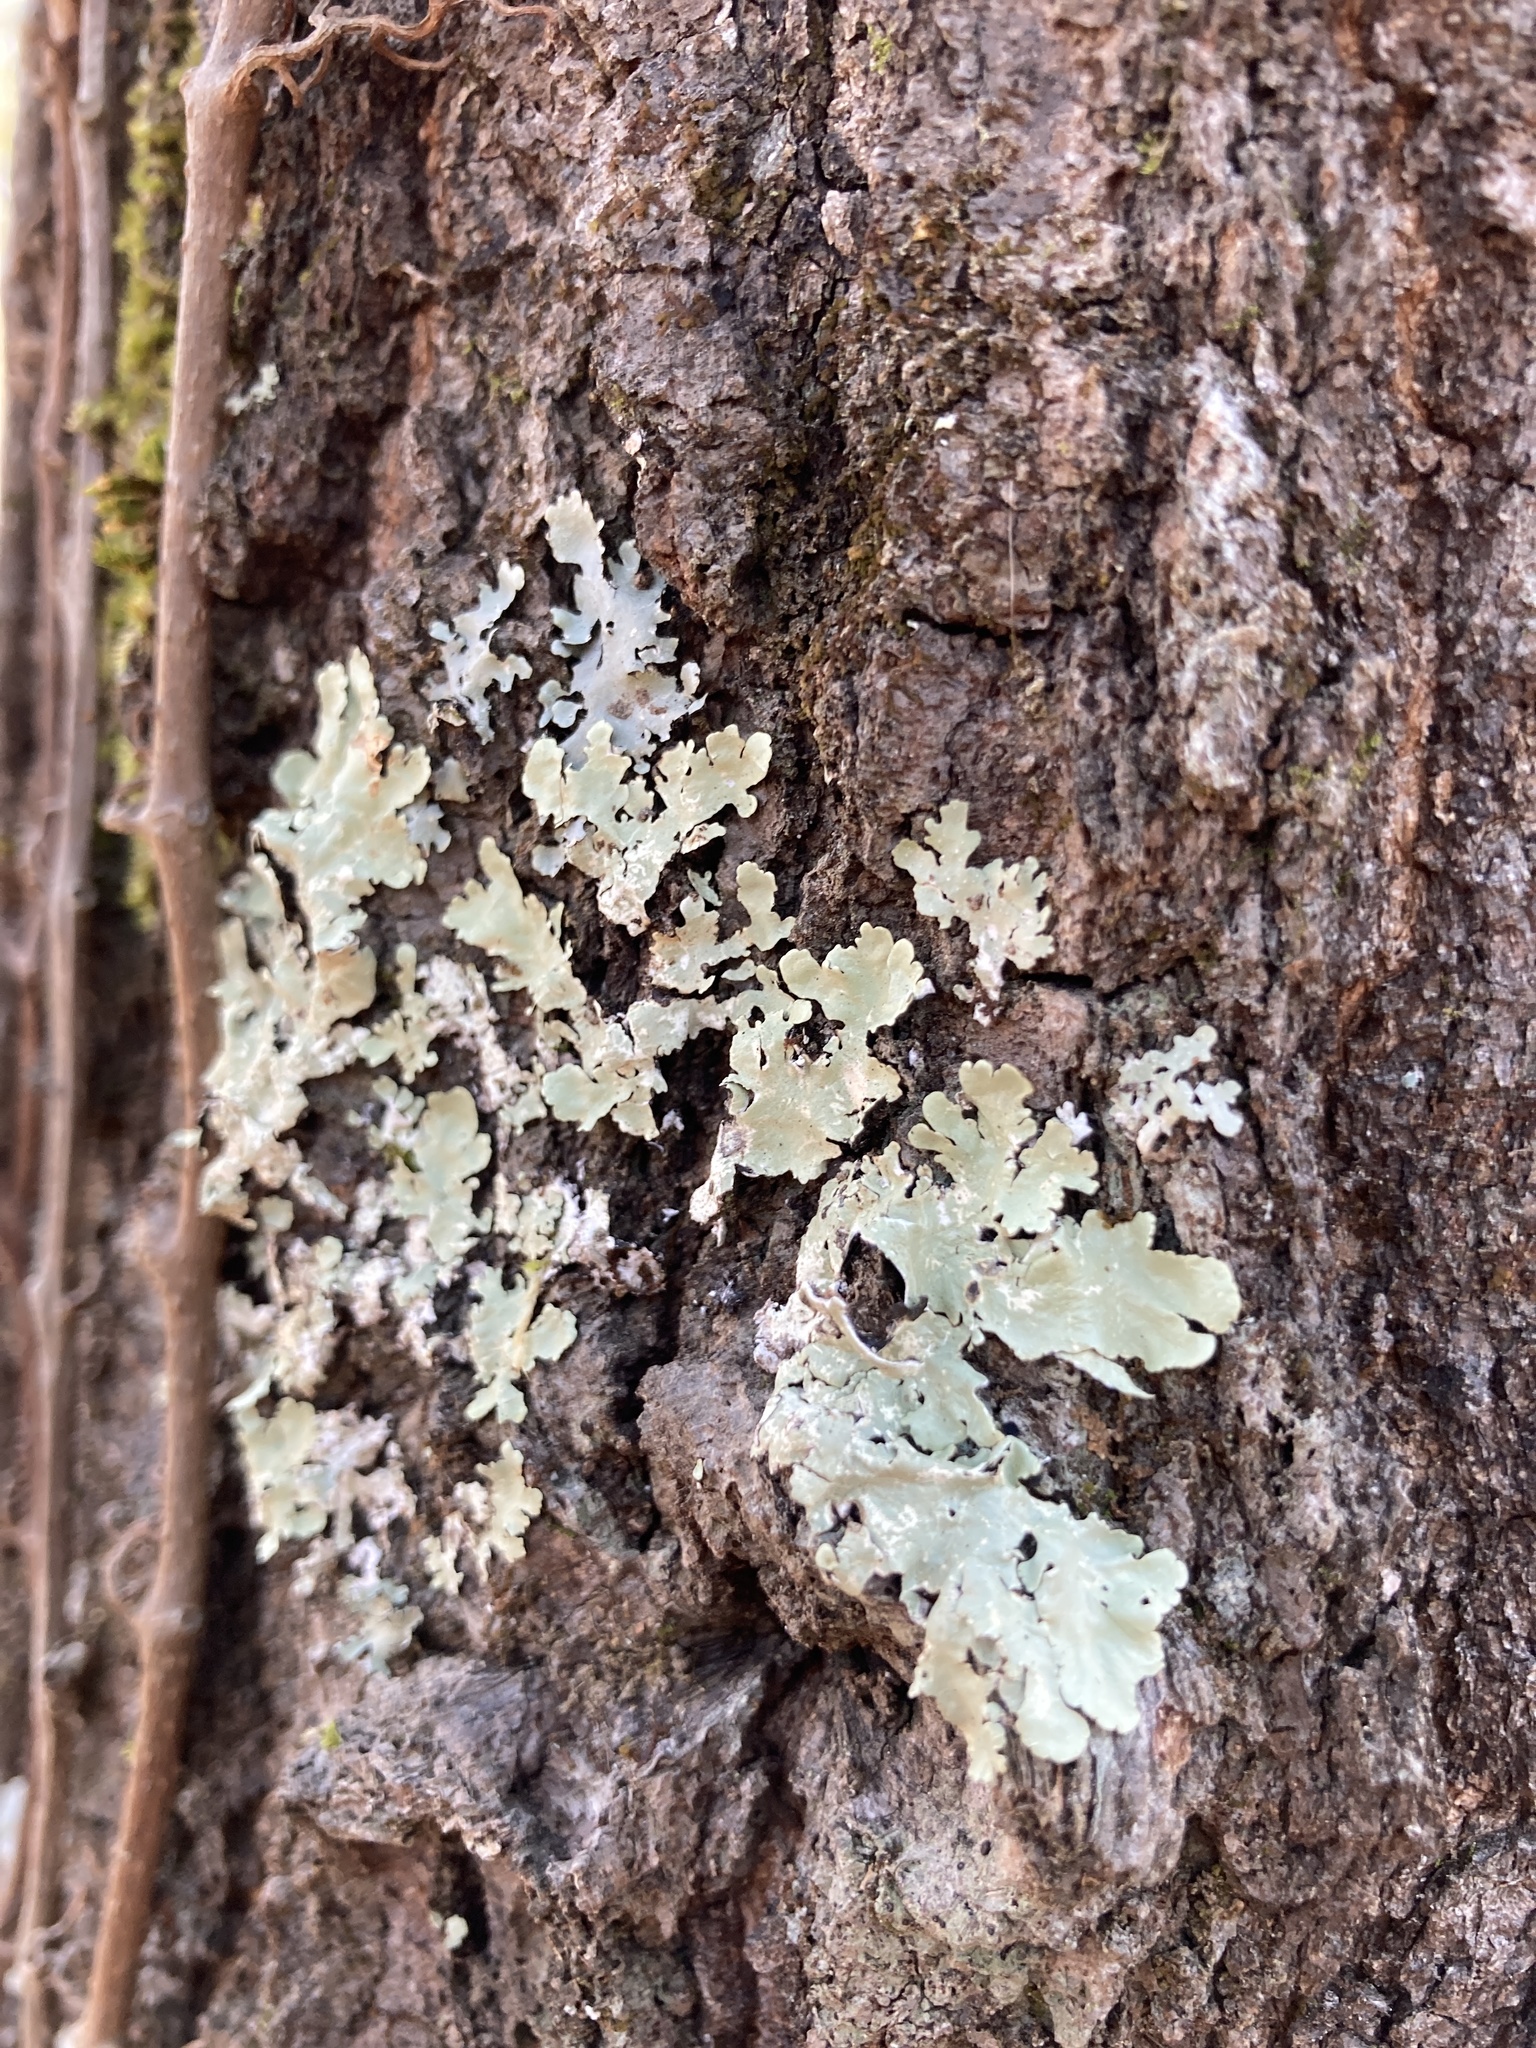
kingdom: Fungi
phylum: Ascomycota
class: Lecanoromycetes
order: Lecanorales
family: Parmeliaceae
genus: Flavoparmelia
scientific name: Flavoparmelia caperata
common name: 40-mile per hour lichen
